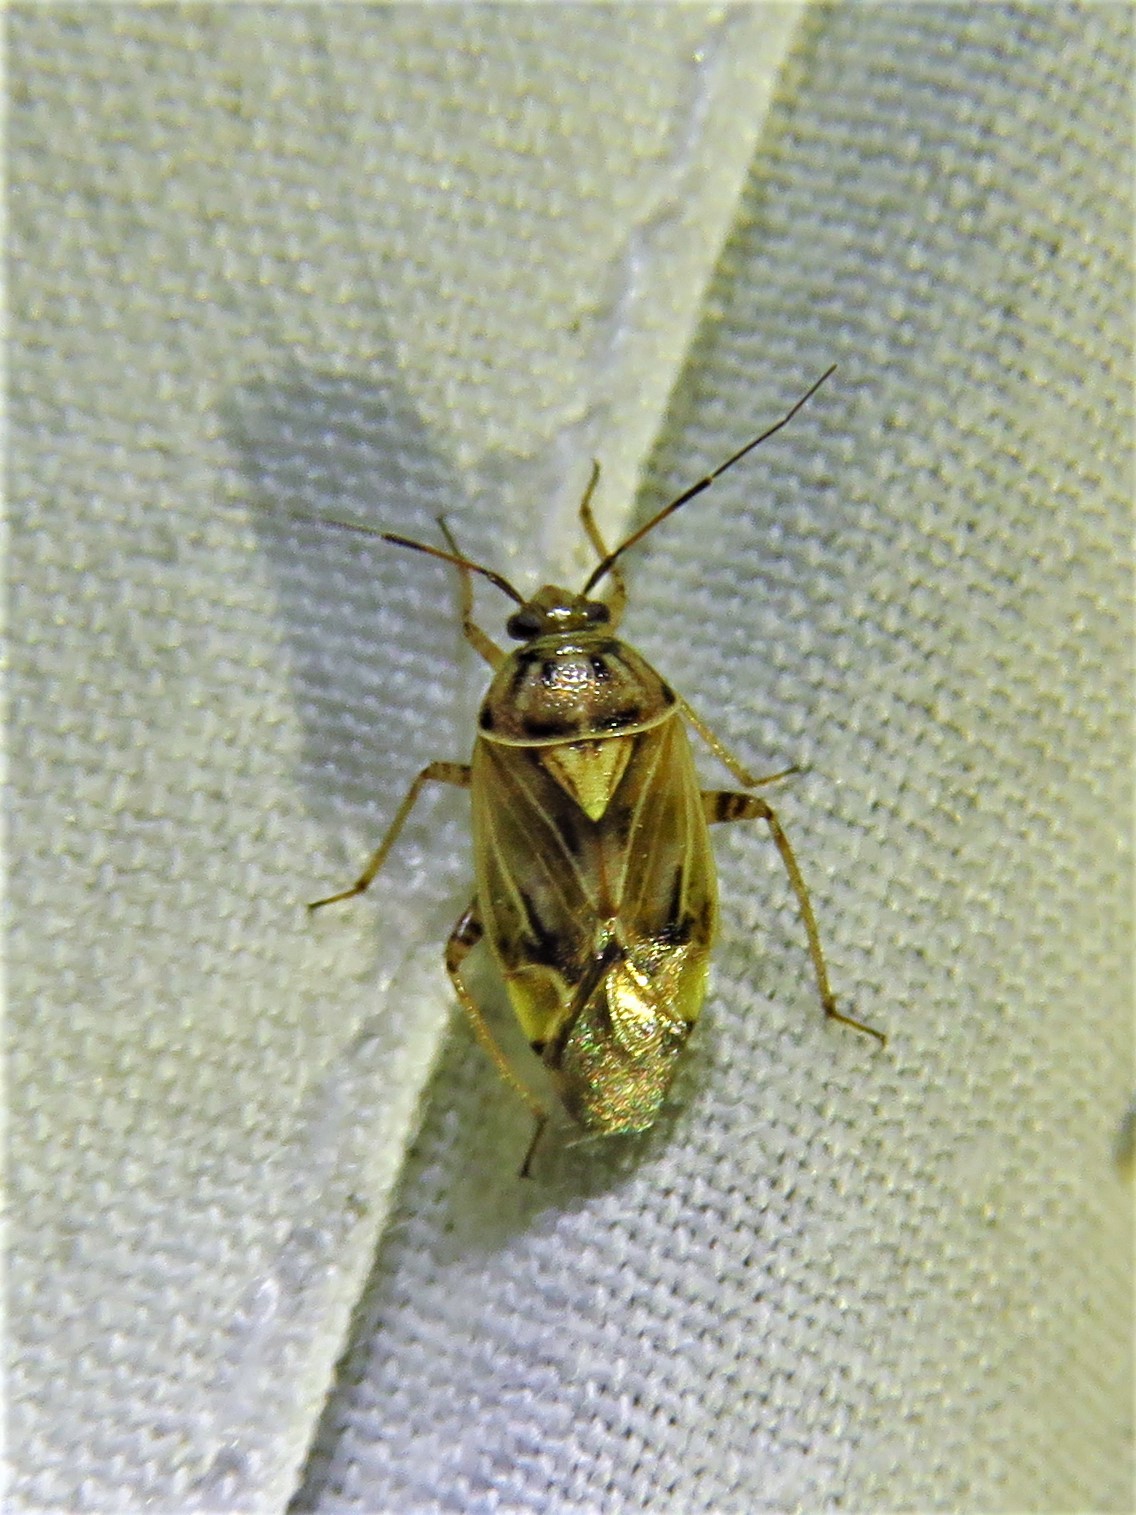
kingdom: Animalia
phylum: Arthropoda
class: Insecta
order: Hemiptera
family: Miridae
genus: Lygus
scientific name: Lygus lineolaris
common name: North american tarnished plant bug
